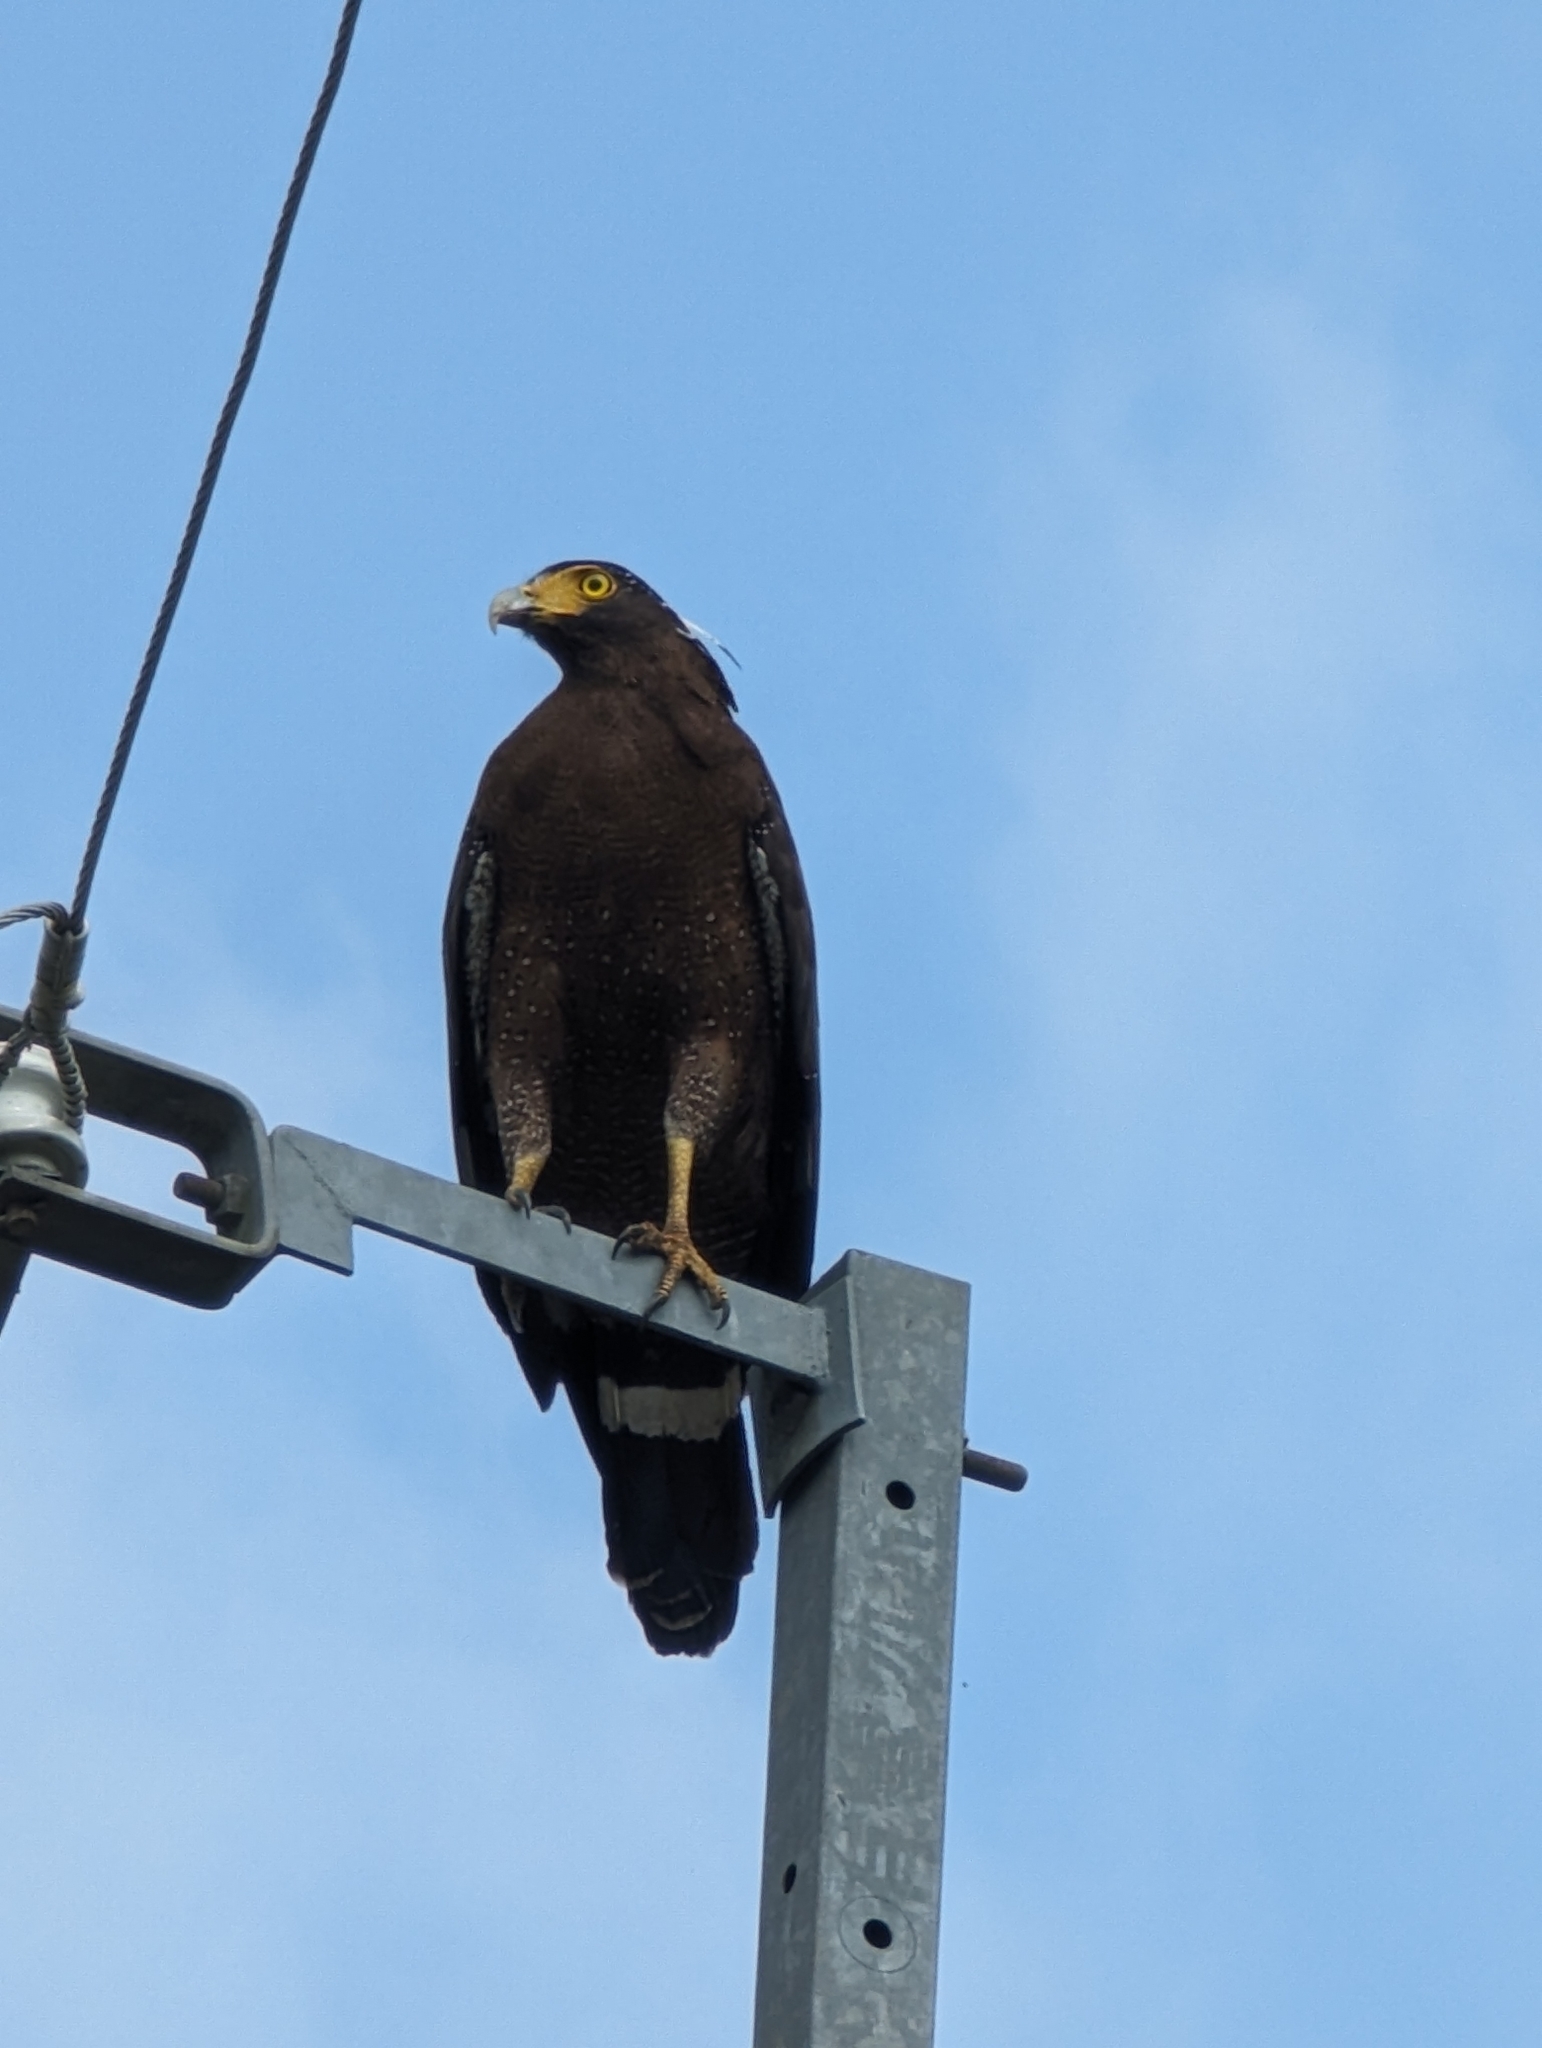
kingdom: Animalia
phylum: Chordata
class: Aves
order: Accipitriformes
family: Accipitridae
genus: Spilornis
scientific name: Spilornis cheela
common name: Crested serpent eagle
